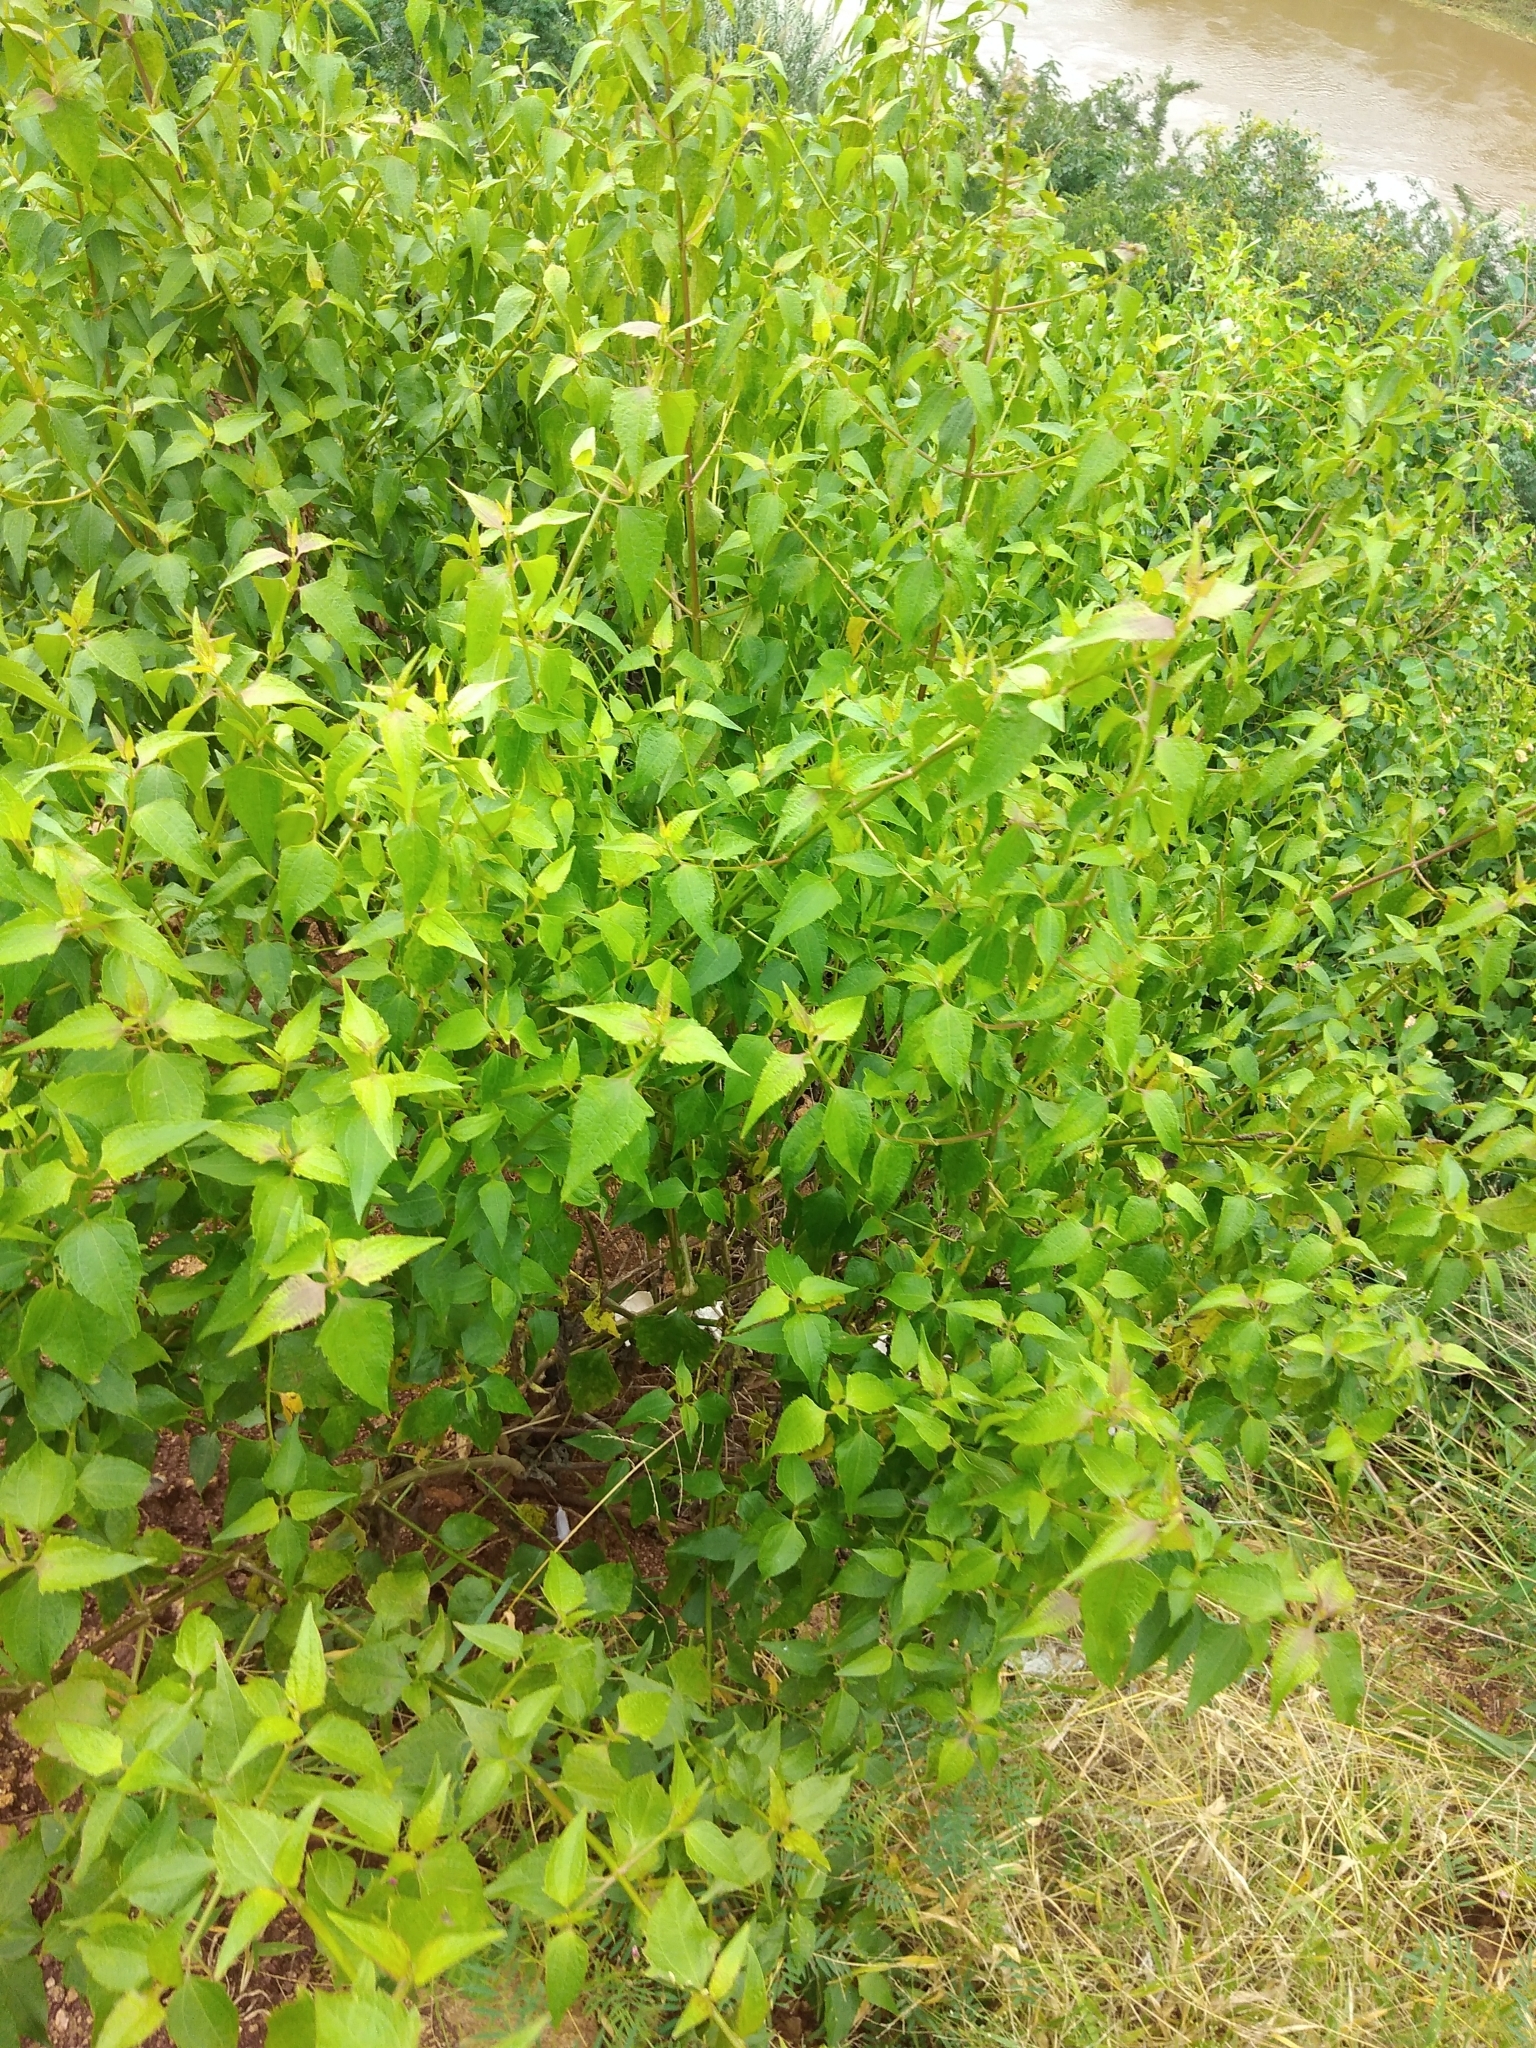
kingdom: Plantae
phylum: Tracheophyta
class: Magnoliopsida
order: Asterales
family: Asteraceae
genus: Chromolaena
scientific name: Chromolaena odorata
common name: Siamweed
